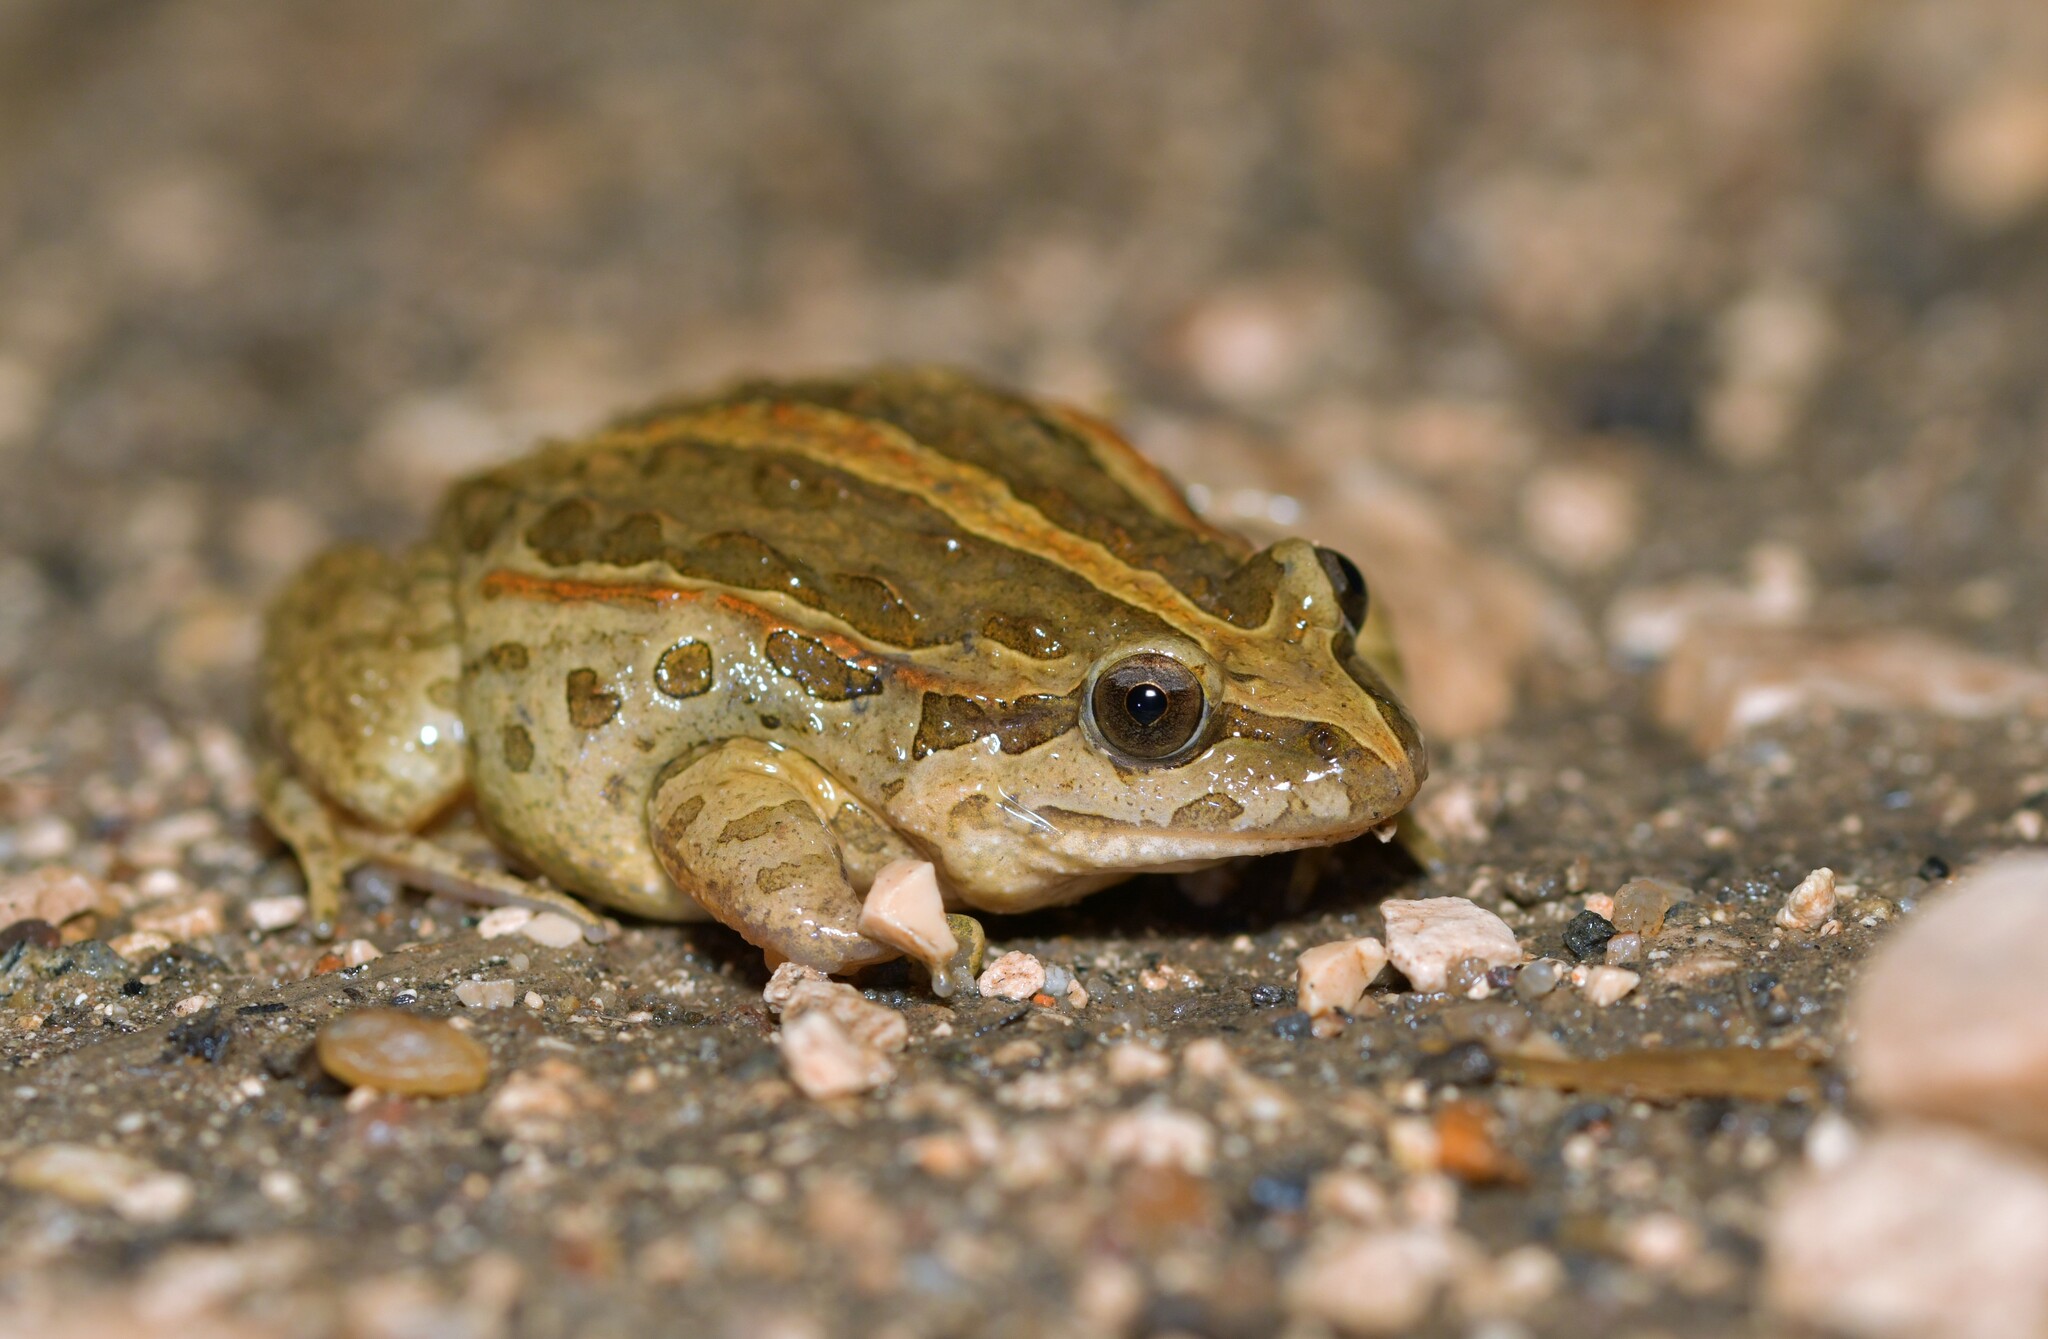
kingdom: Animalia
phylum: Chordata
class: Amphibia
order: Anura
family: Alytidae
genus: Discoglossus
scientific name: Discoglossus galganoi
